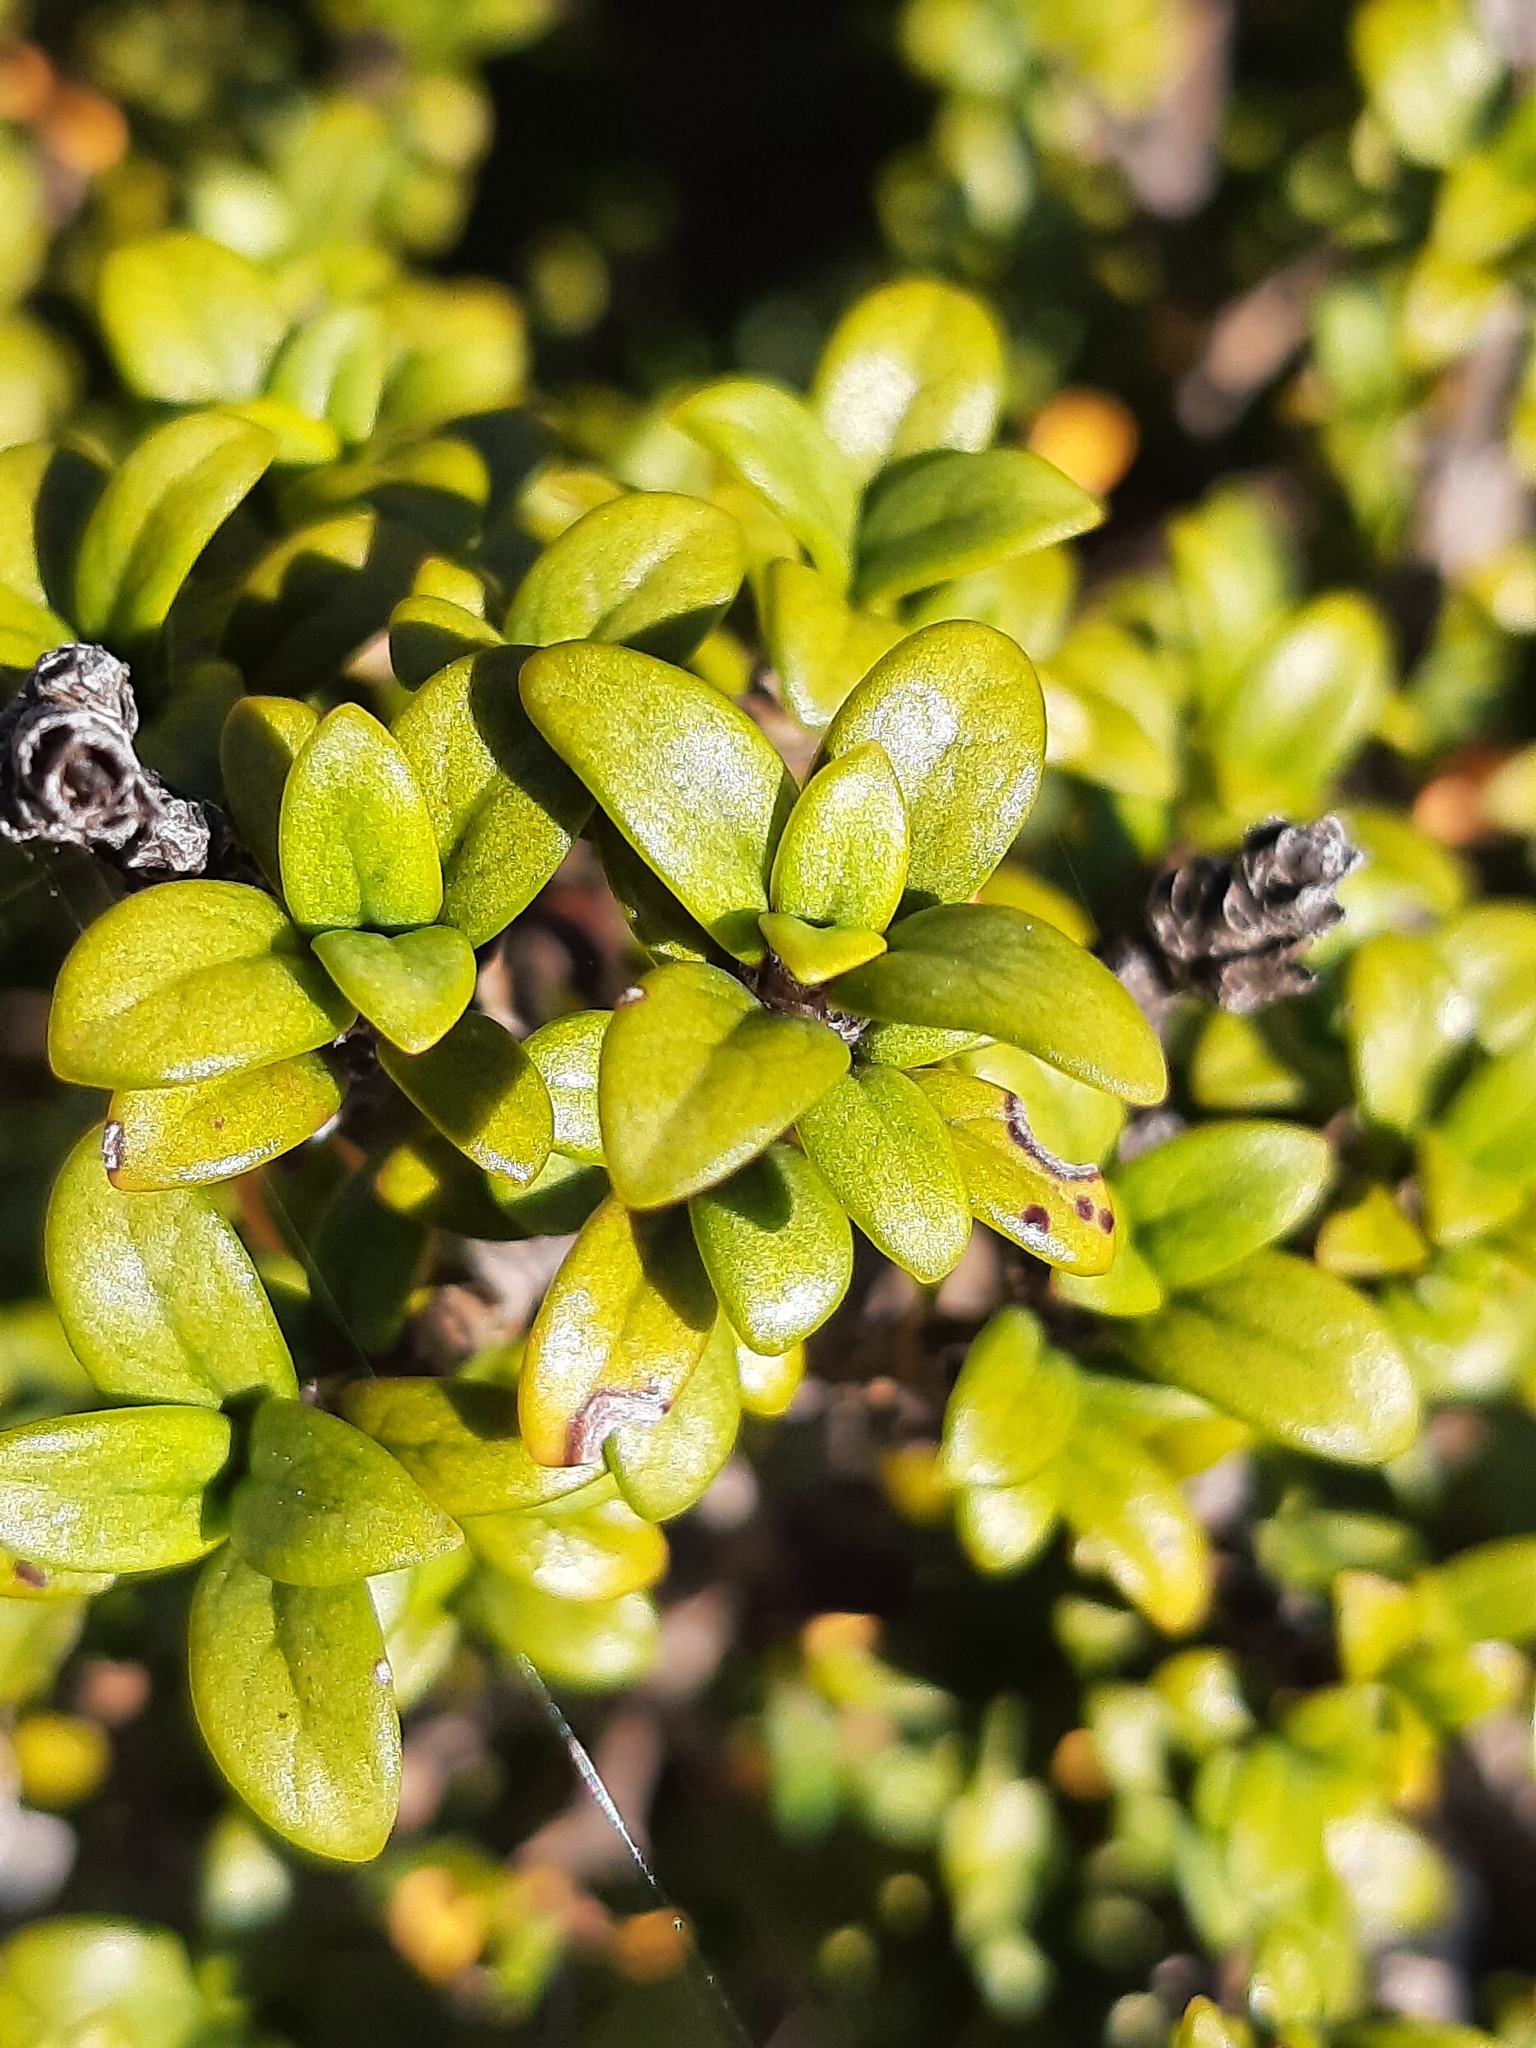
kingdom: Plantae
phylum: Tracheophyta
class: Magnoliopsida
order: Gentianales
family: Rubiaceae
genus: Coprosma
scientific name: Coprosma pseudocuneata
